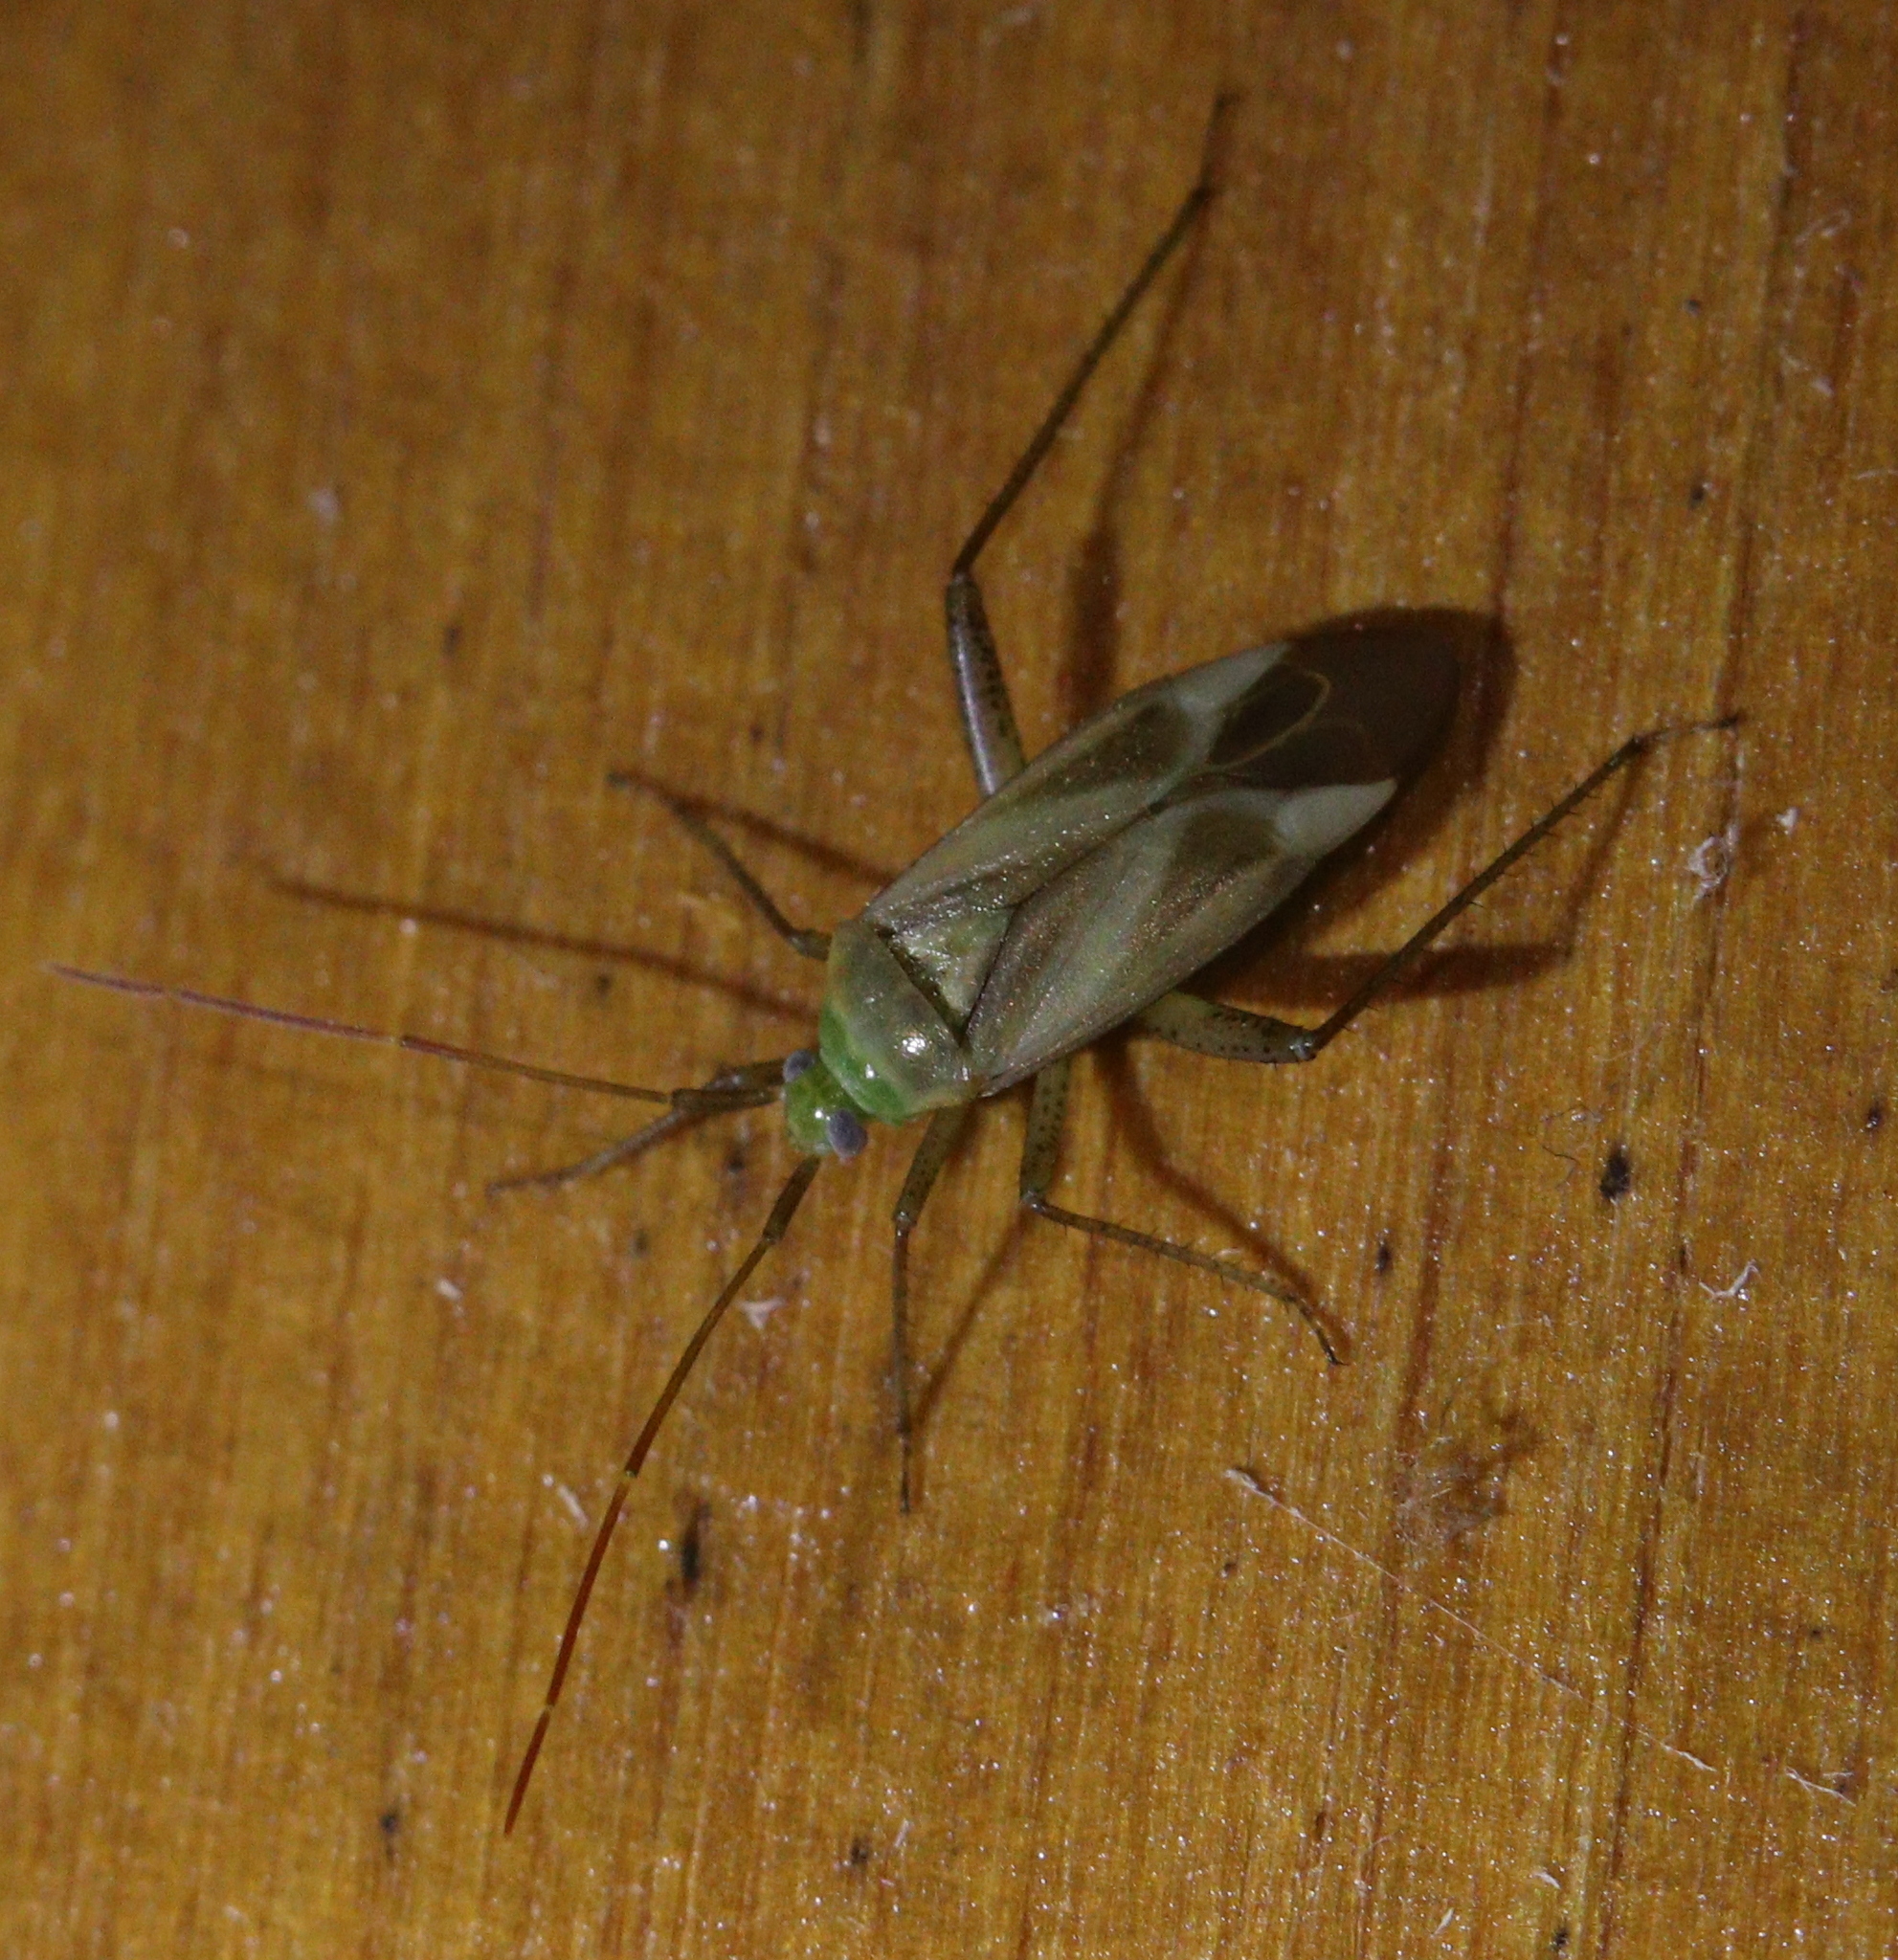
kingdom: Animalia
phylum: Arthropoda
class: Insecta
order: Hemiptera
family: Miridae
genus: Adelphocoris
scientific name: Adelphocoris lineolatus
